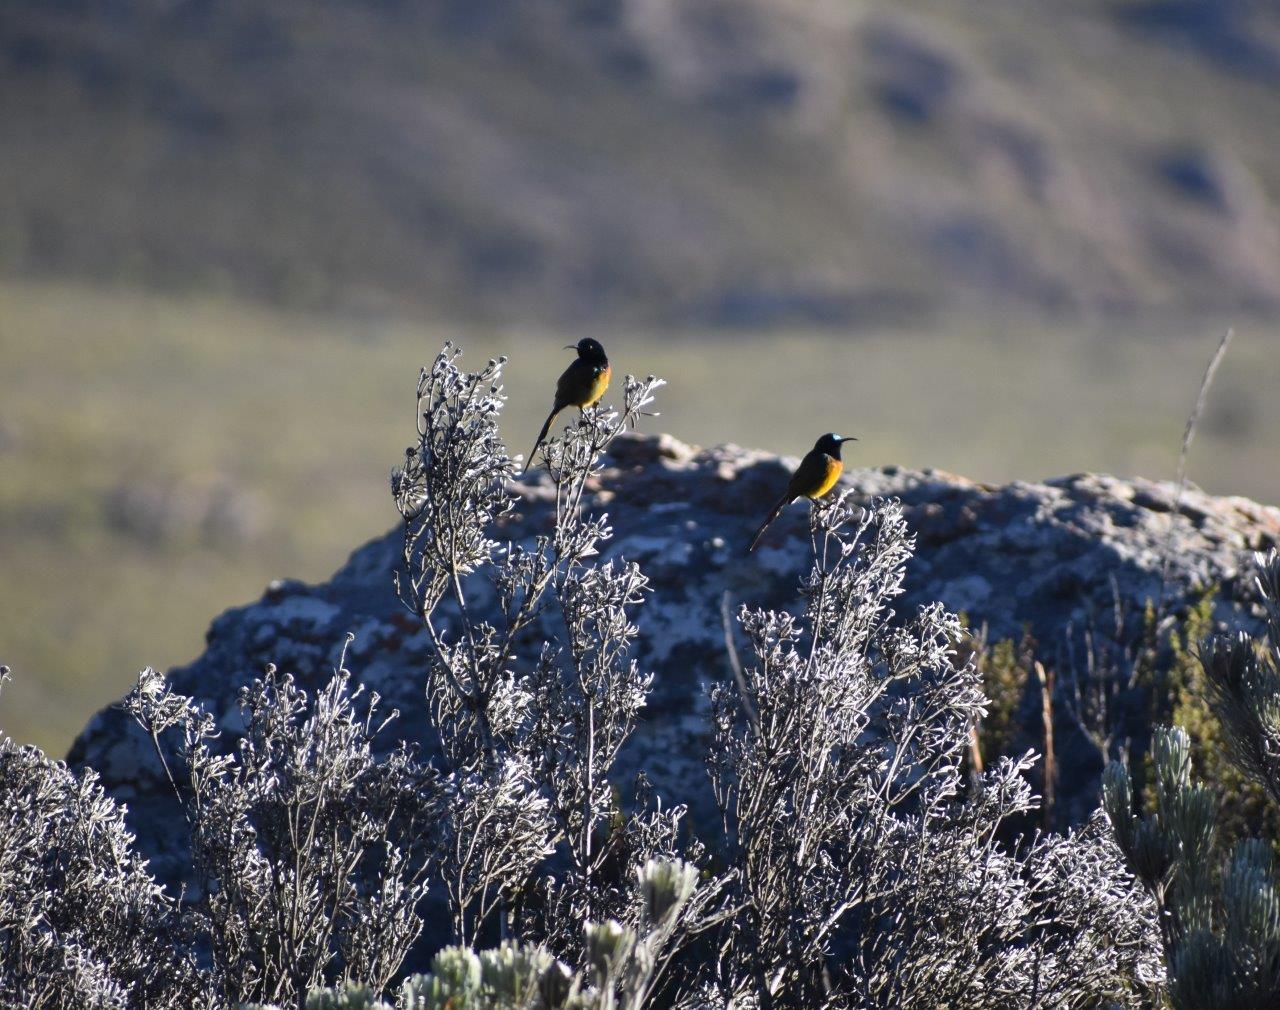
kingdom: Animalia
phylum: Chordata
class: Aves
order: Passeriformes
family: Nectariniidae
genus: Anthobaphes
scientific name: Anthobaphes violacea
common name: Orange-breasted sunbird
